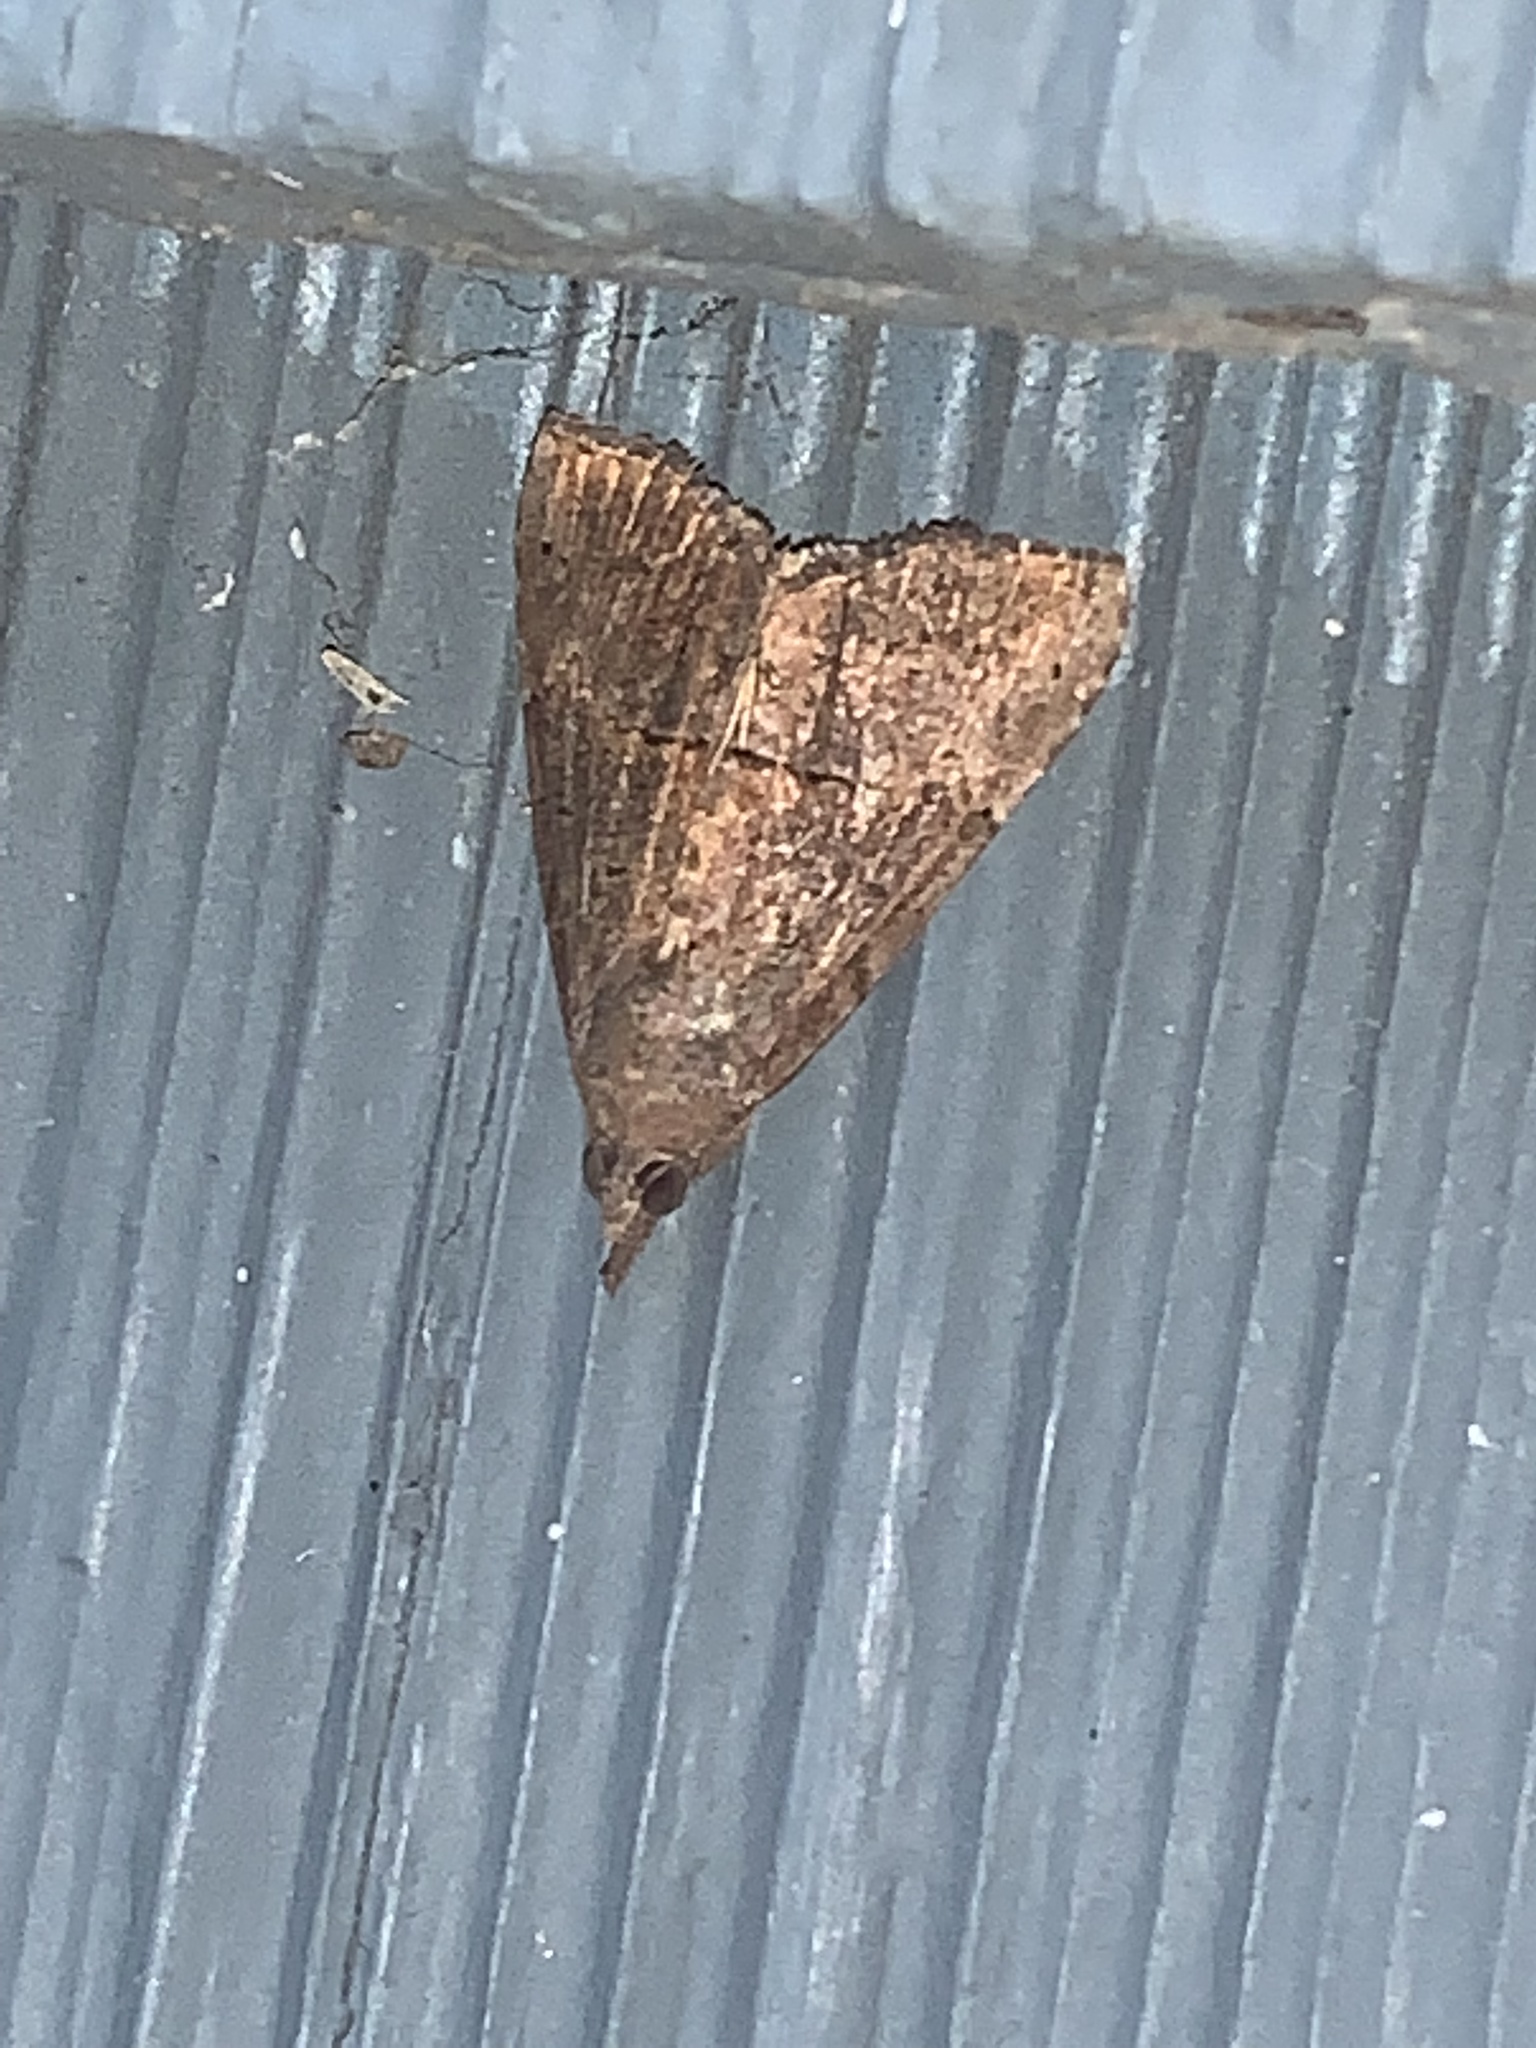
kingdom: Animalia
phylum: Arthropoda
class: Insecta
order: Lepidoptera
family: Erebidae
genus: Hypena
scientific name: Hypena scabra
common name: Green cloverworm
